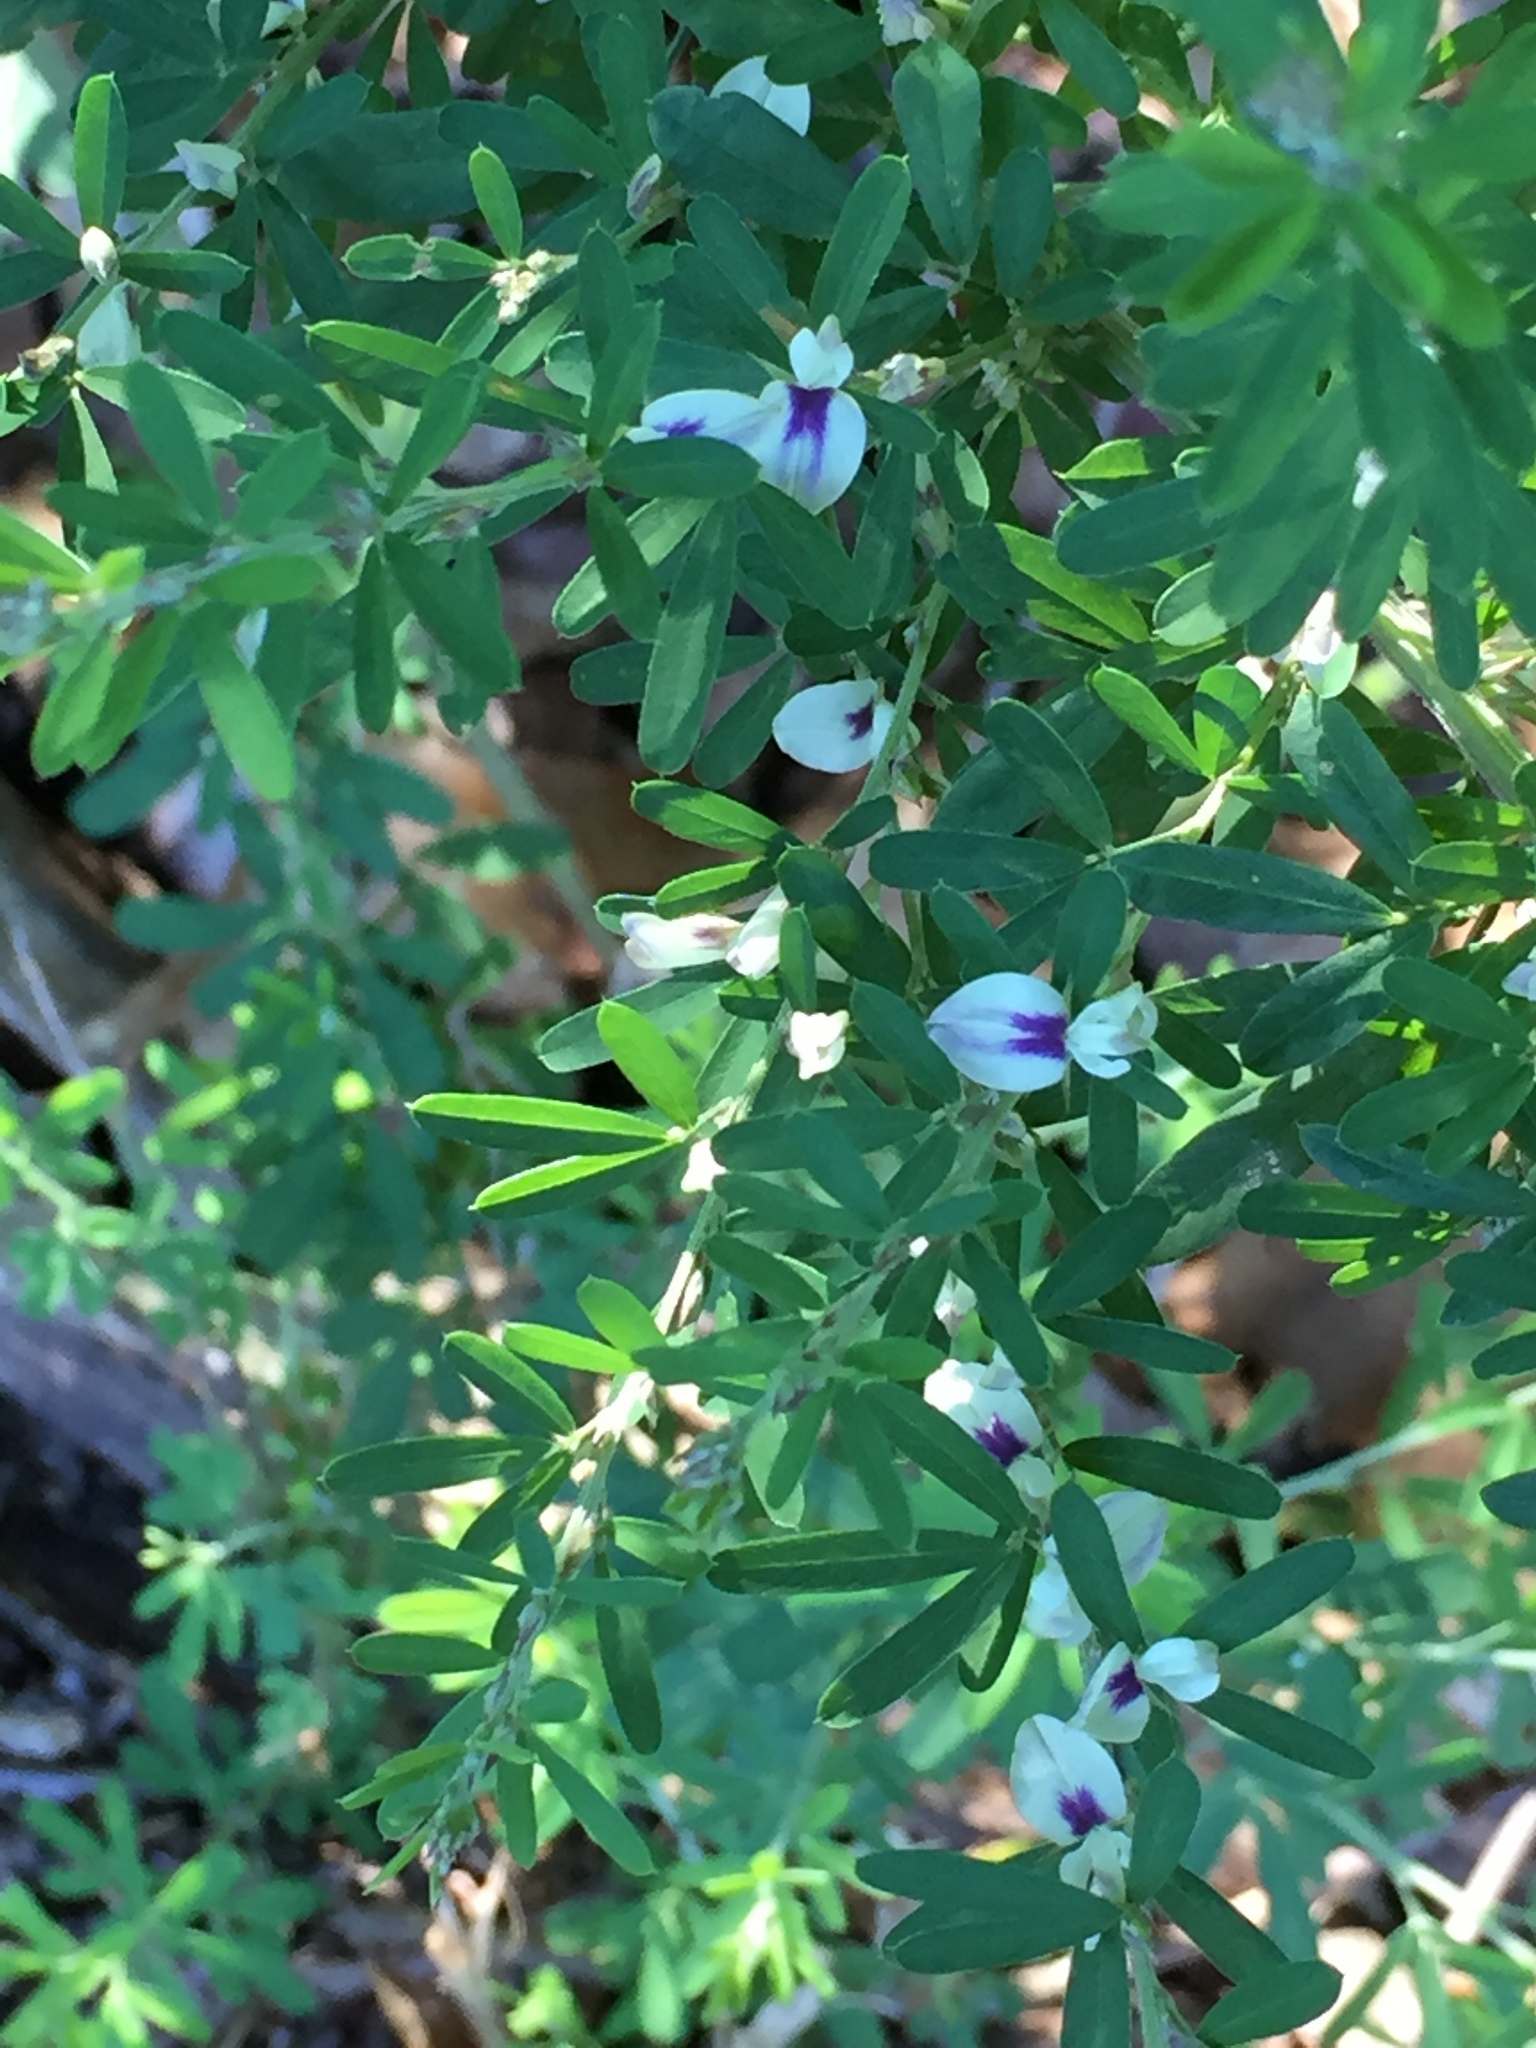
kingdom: Plantae
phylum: Tracheophyta
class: Magnoliopsida
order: Fabales
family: Fabaceae
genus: Lespedeza
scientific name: Lespedeza cuneata
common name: Chinese bush-clover
